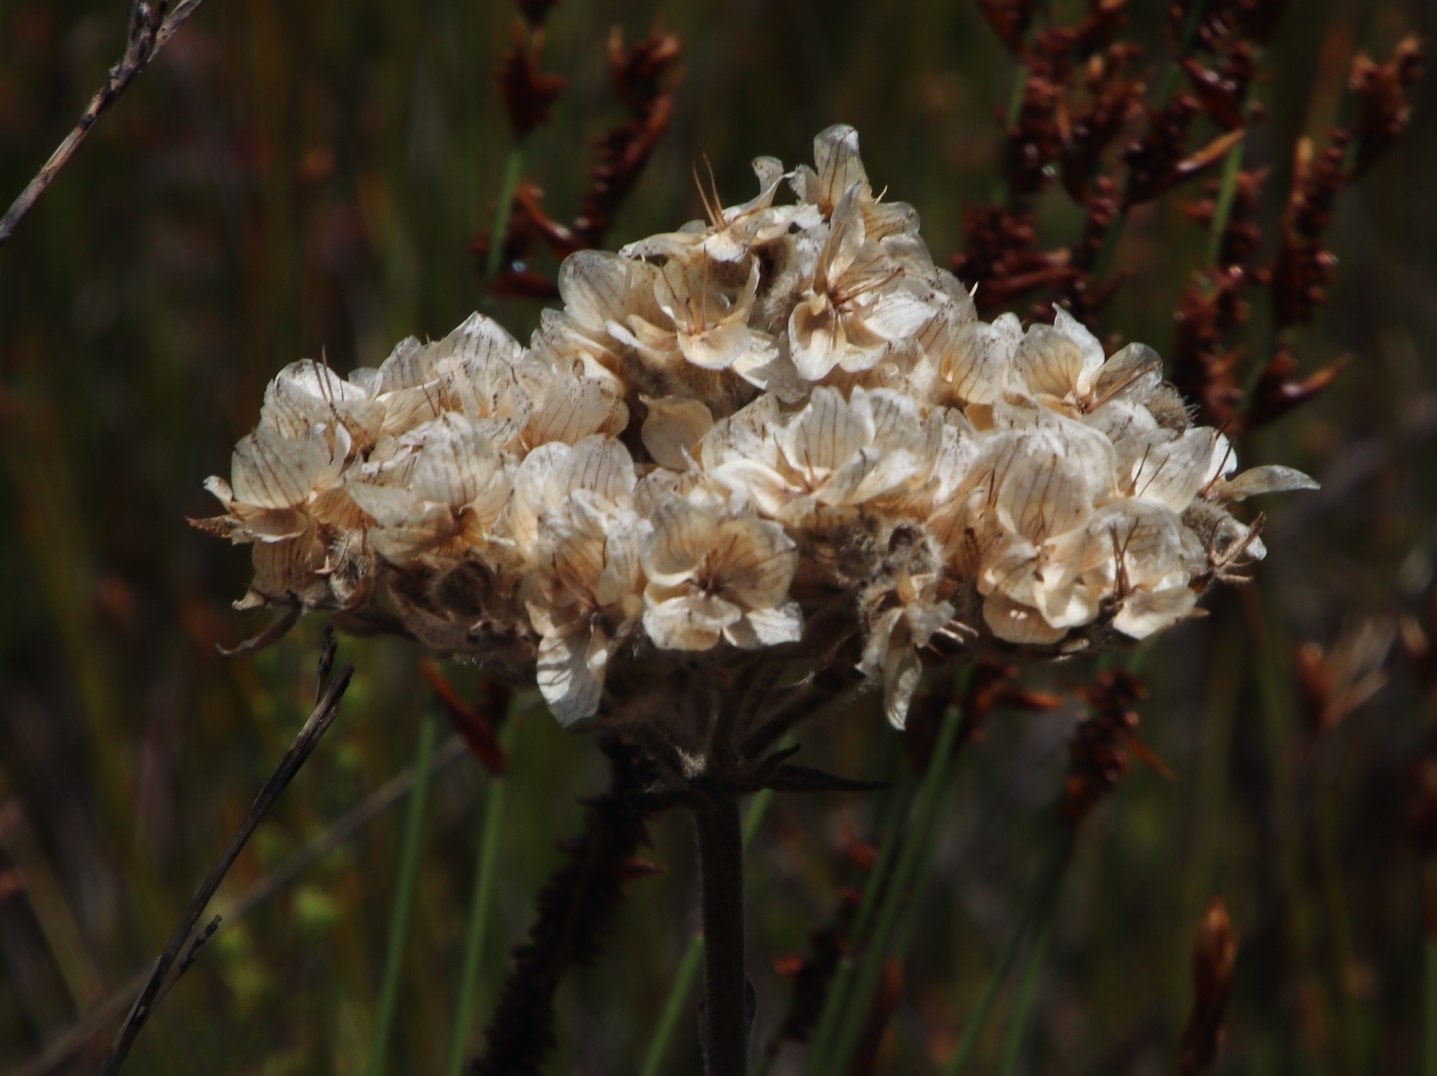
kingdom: Plantae
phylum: Tracheophyta
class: Liliopsida
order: Commelinales
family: Haemodoraceae
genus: Dilatris
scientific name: Dilatris pillansii
